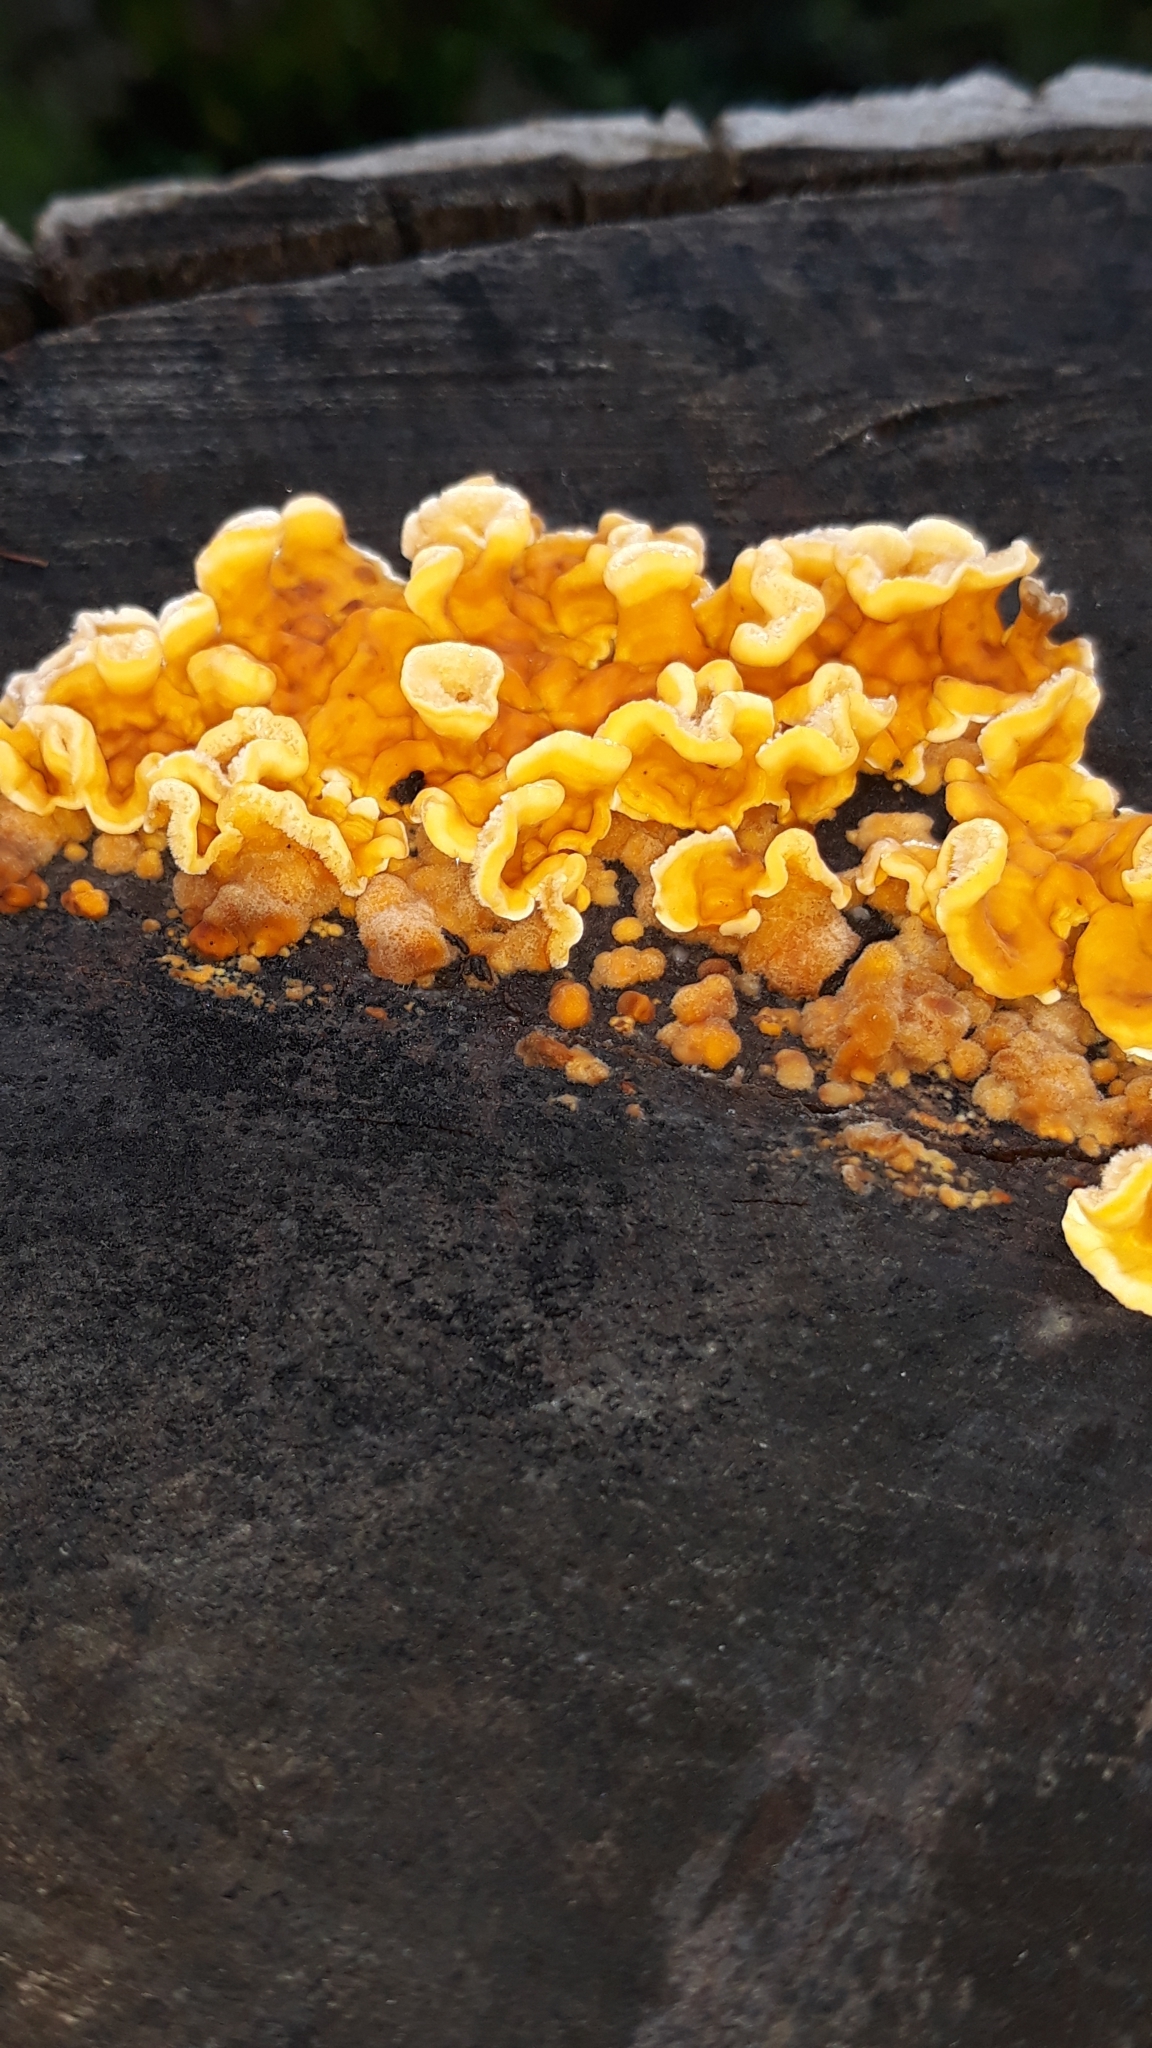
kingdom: Fungi
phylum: Basidiomycota
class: Agaricomycetes
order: Russulales
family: Stereaceae
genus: Stereum
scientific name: Stereum hirsutum
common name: Hairy curtain crust
